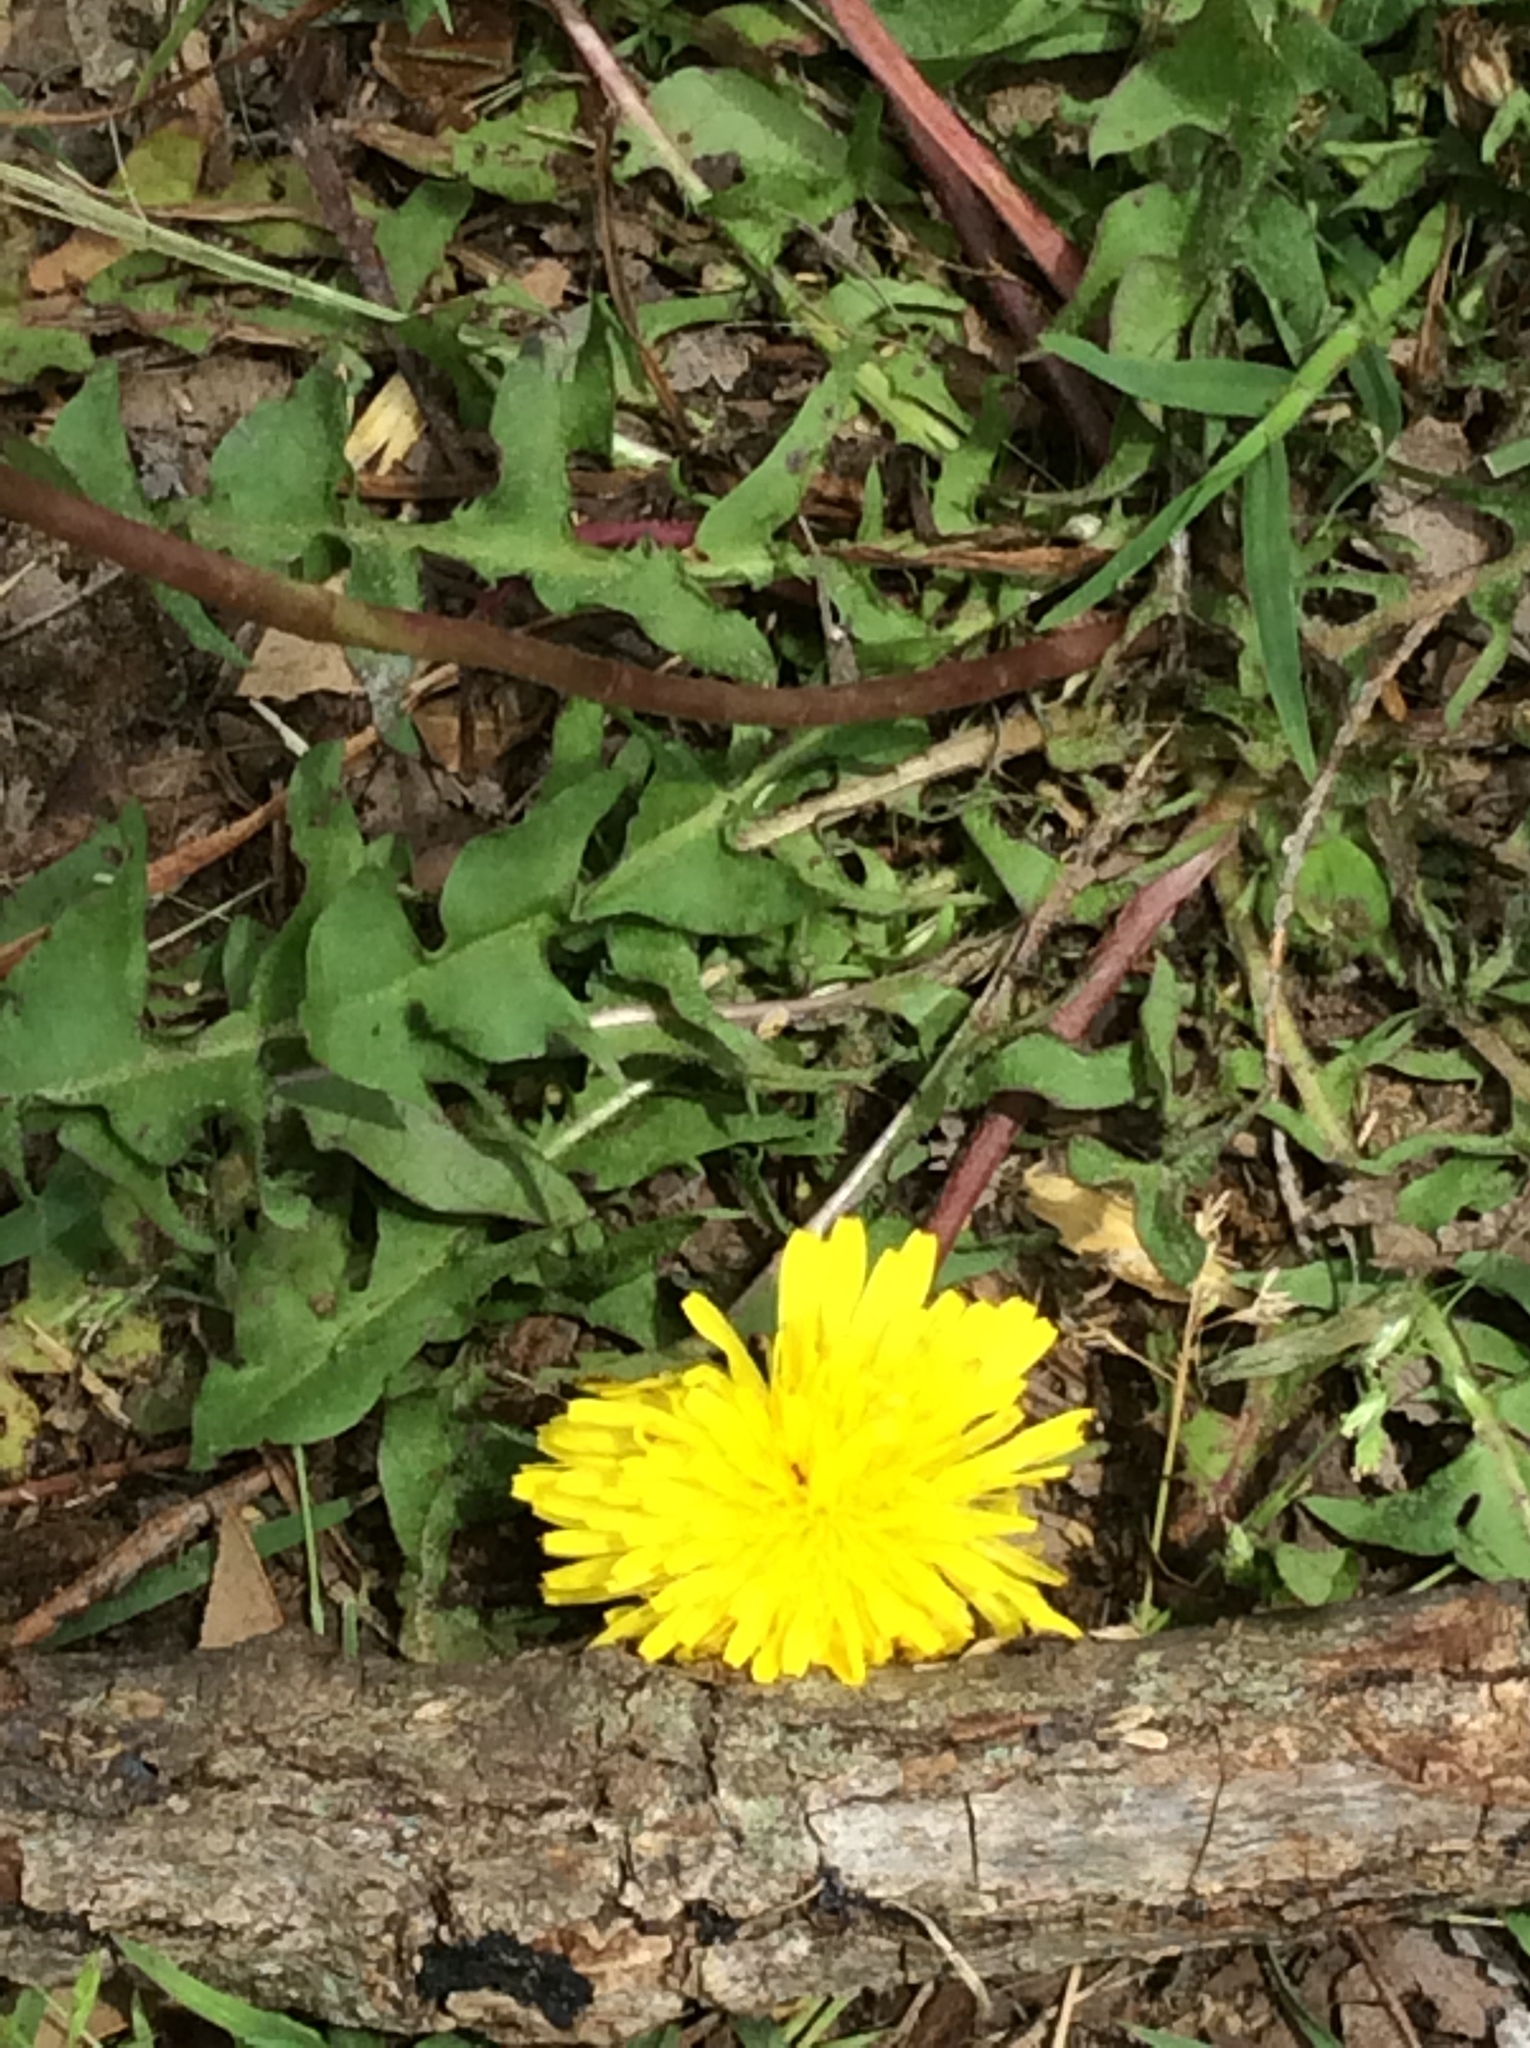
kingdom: Plantae
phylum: Tracheophyta
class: Magnoliopsida
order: Asterales
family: Asteraceae
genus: Taraxacum
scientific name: Taraxacum officinale
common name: Common dandelion
